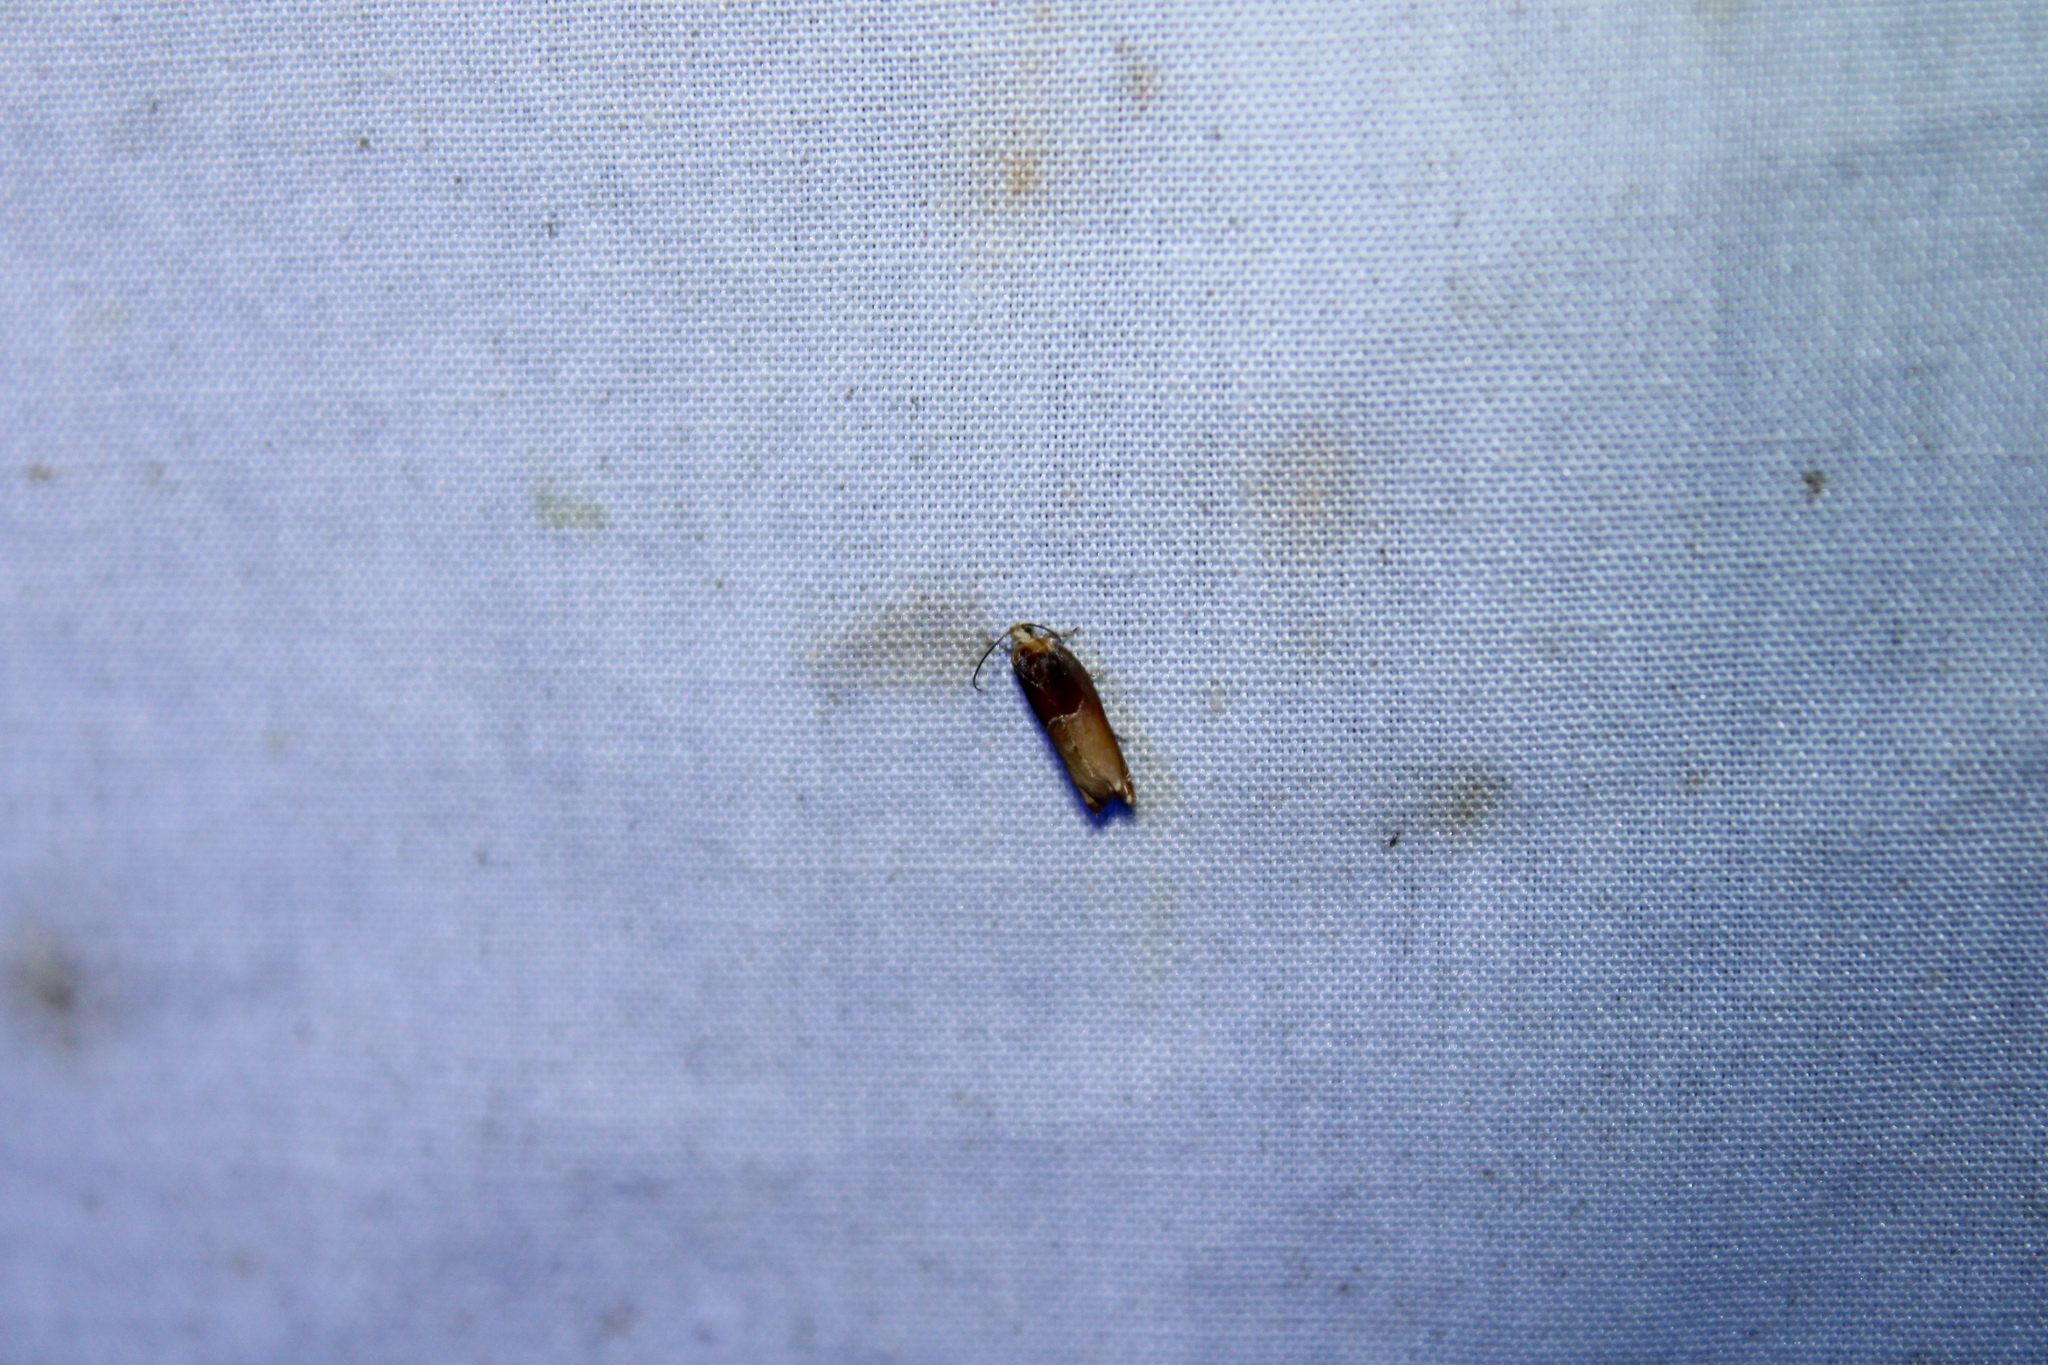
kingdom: Animalia
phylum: Arthropoda
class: Insecta
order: Lepidoptera
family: Tortricidae
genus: Ancylis
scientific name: Ancylis divisana
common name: Two-toned ancylis moth
